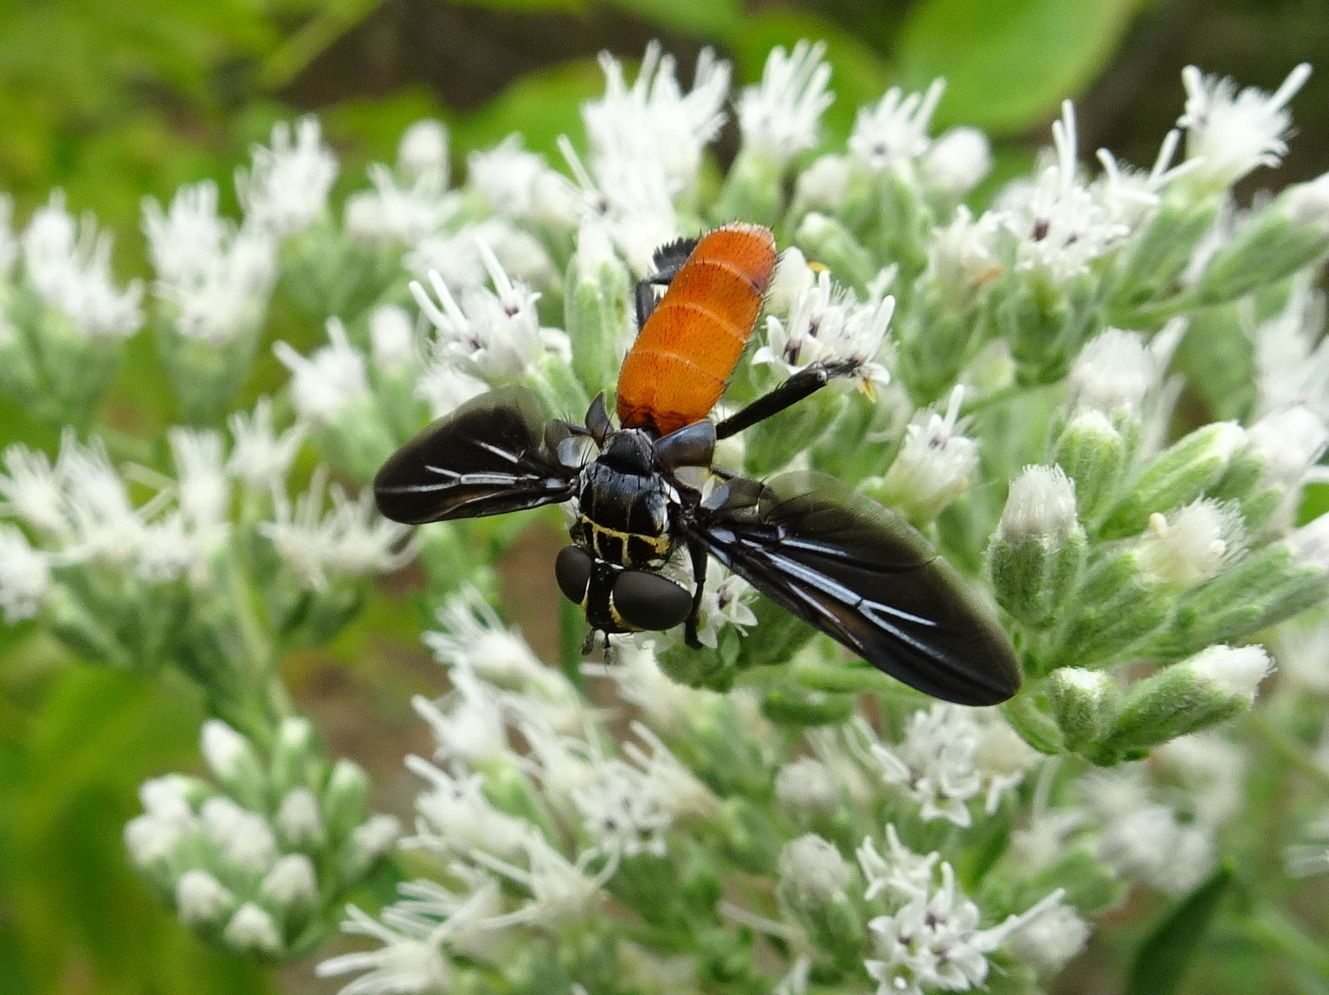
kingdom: Animalia
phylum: Arthropoda
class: Insecta
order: Diptera
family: Tachinidae
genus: Trichopoda
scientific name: Trichopoda pennipes
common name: Tachinid fly
